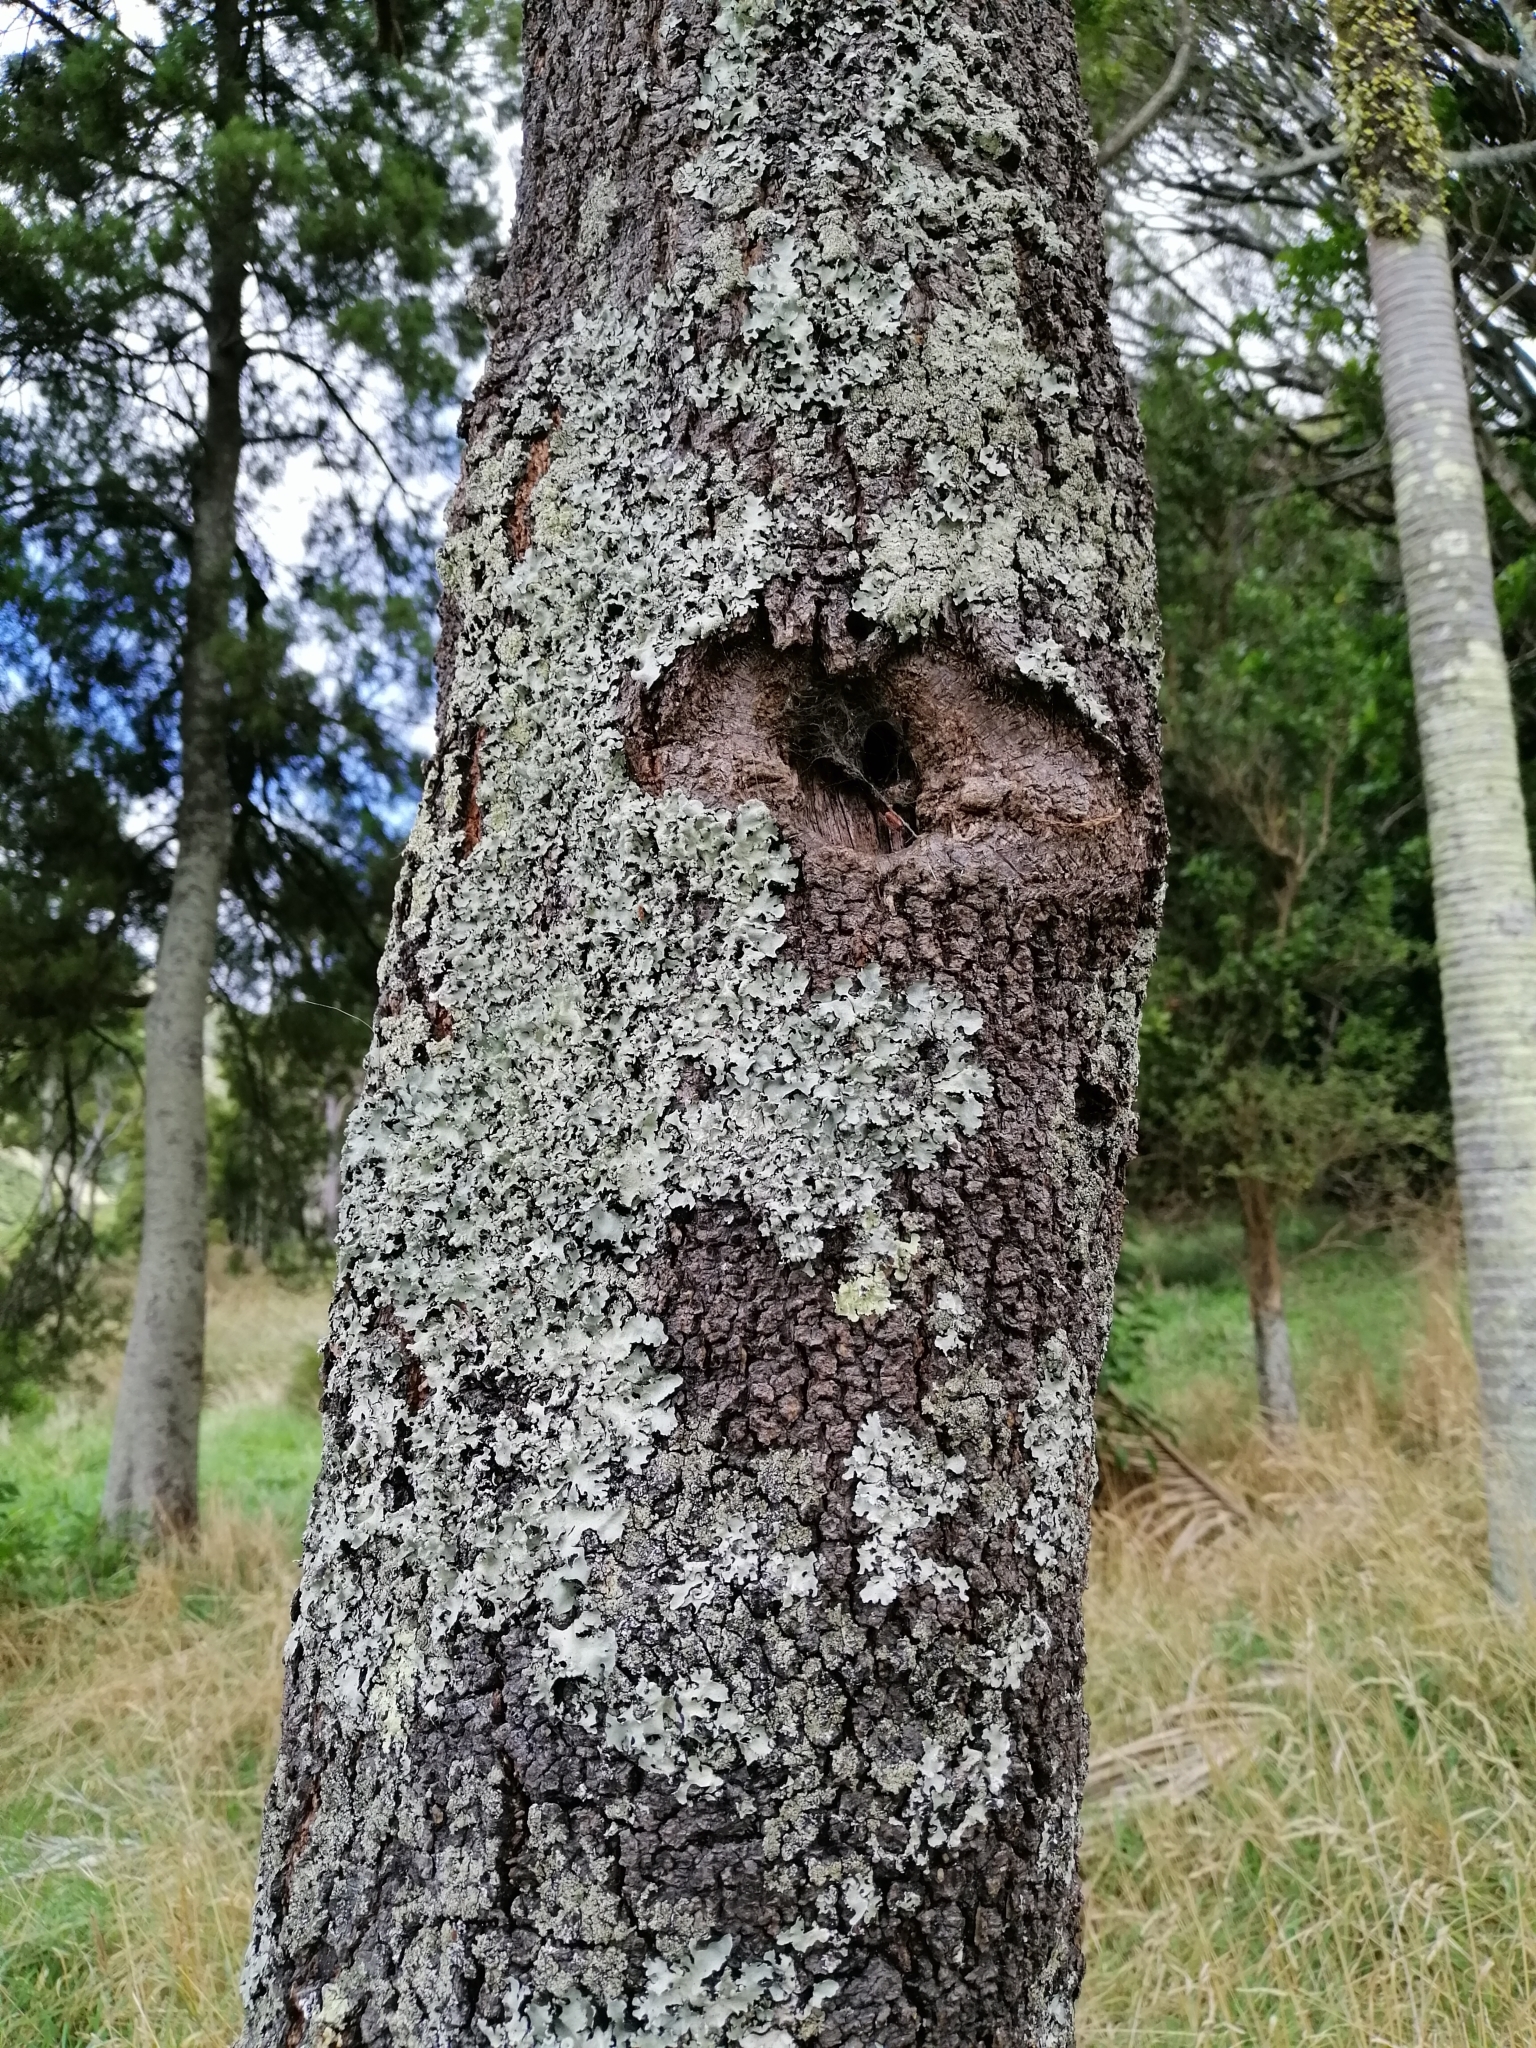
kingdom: Plantae
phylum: Tracheophyta
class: Magnoliopsida
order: Lamiales
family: Oleaceae
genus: Nestegis
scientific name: Nestegis montana
